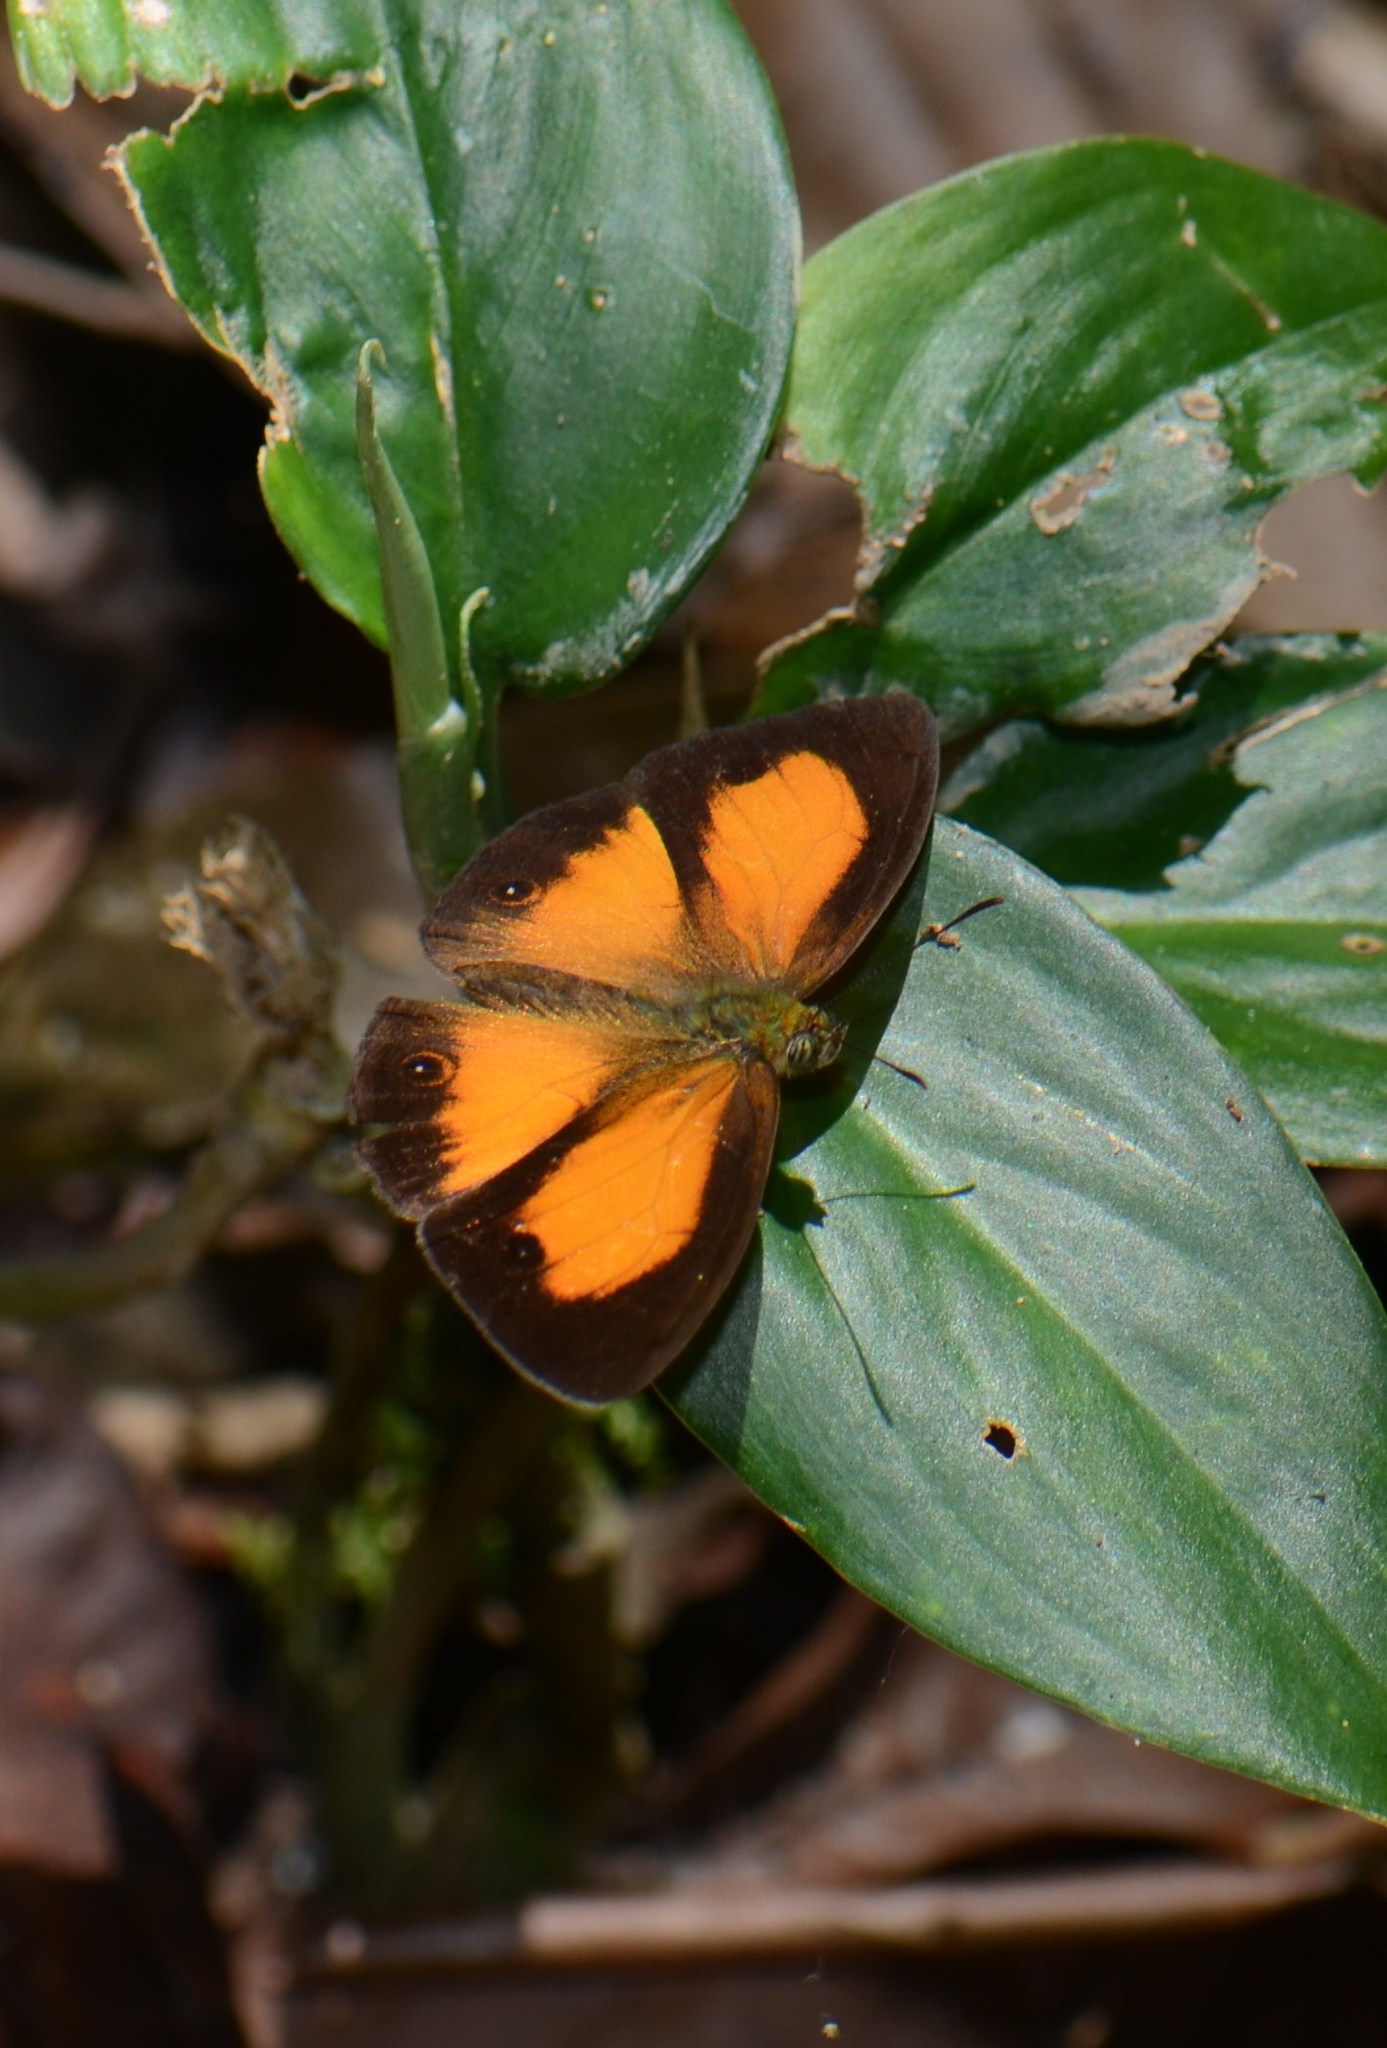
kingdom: Animalia
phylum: Arthropoda
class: Insecta
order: Lepidoptera
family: Nymphalidae
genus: Mycalesis
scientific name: Mycalesis marginata
